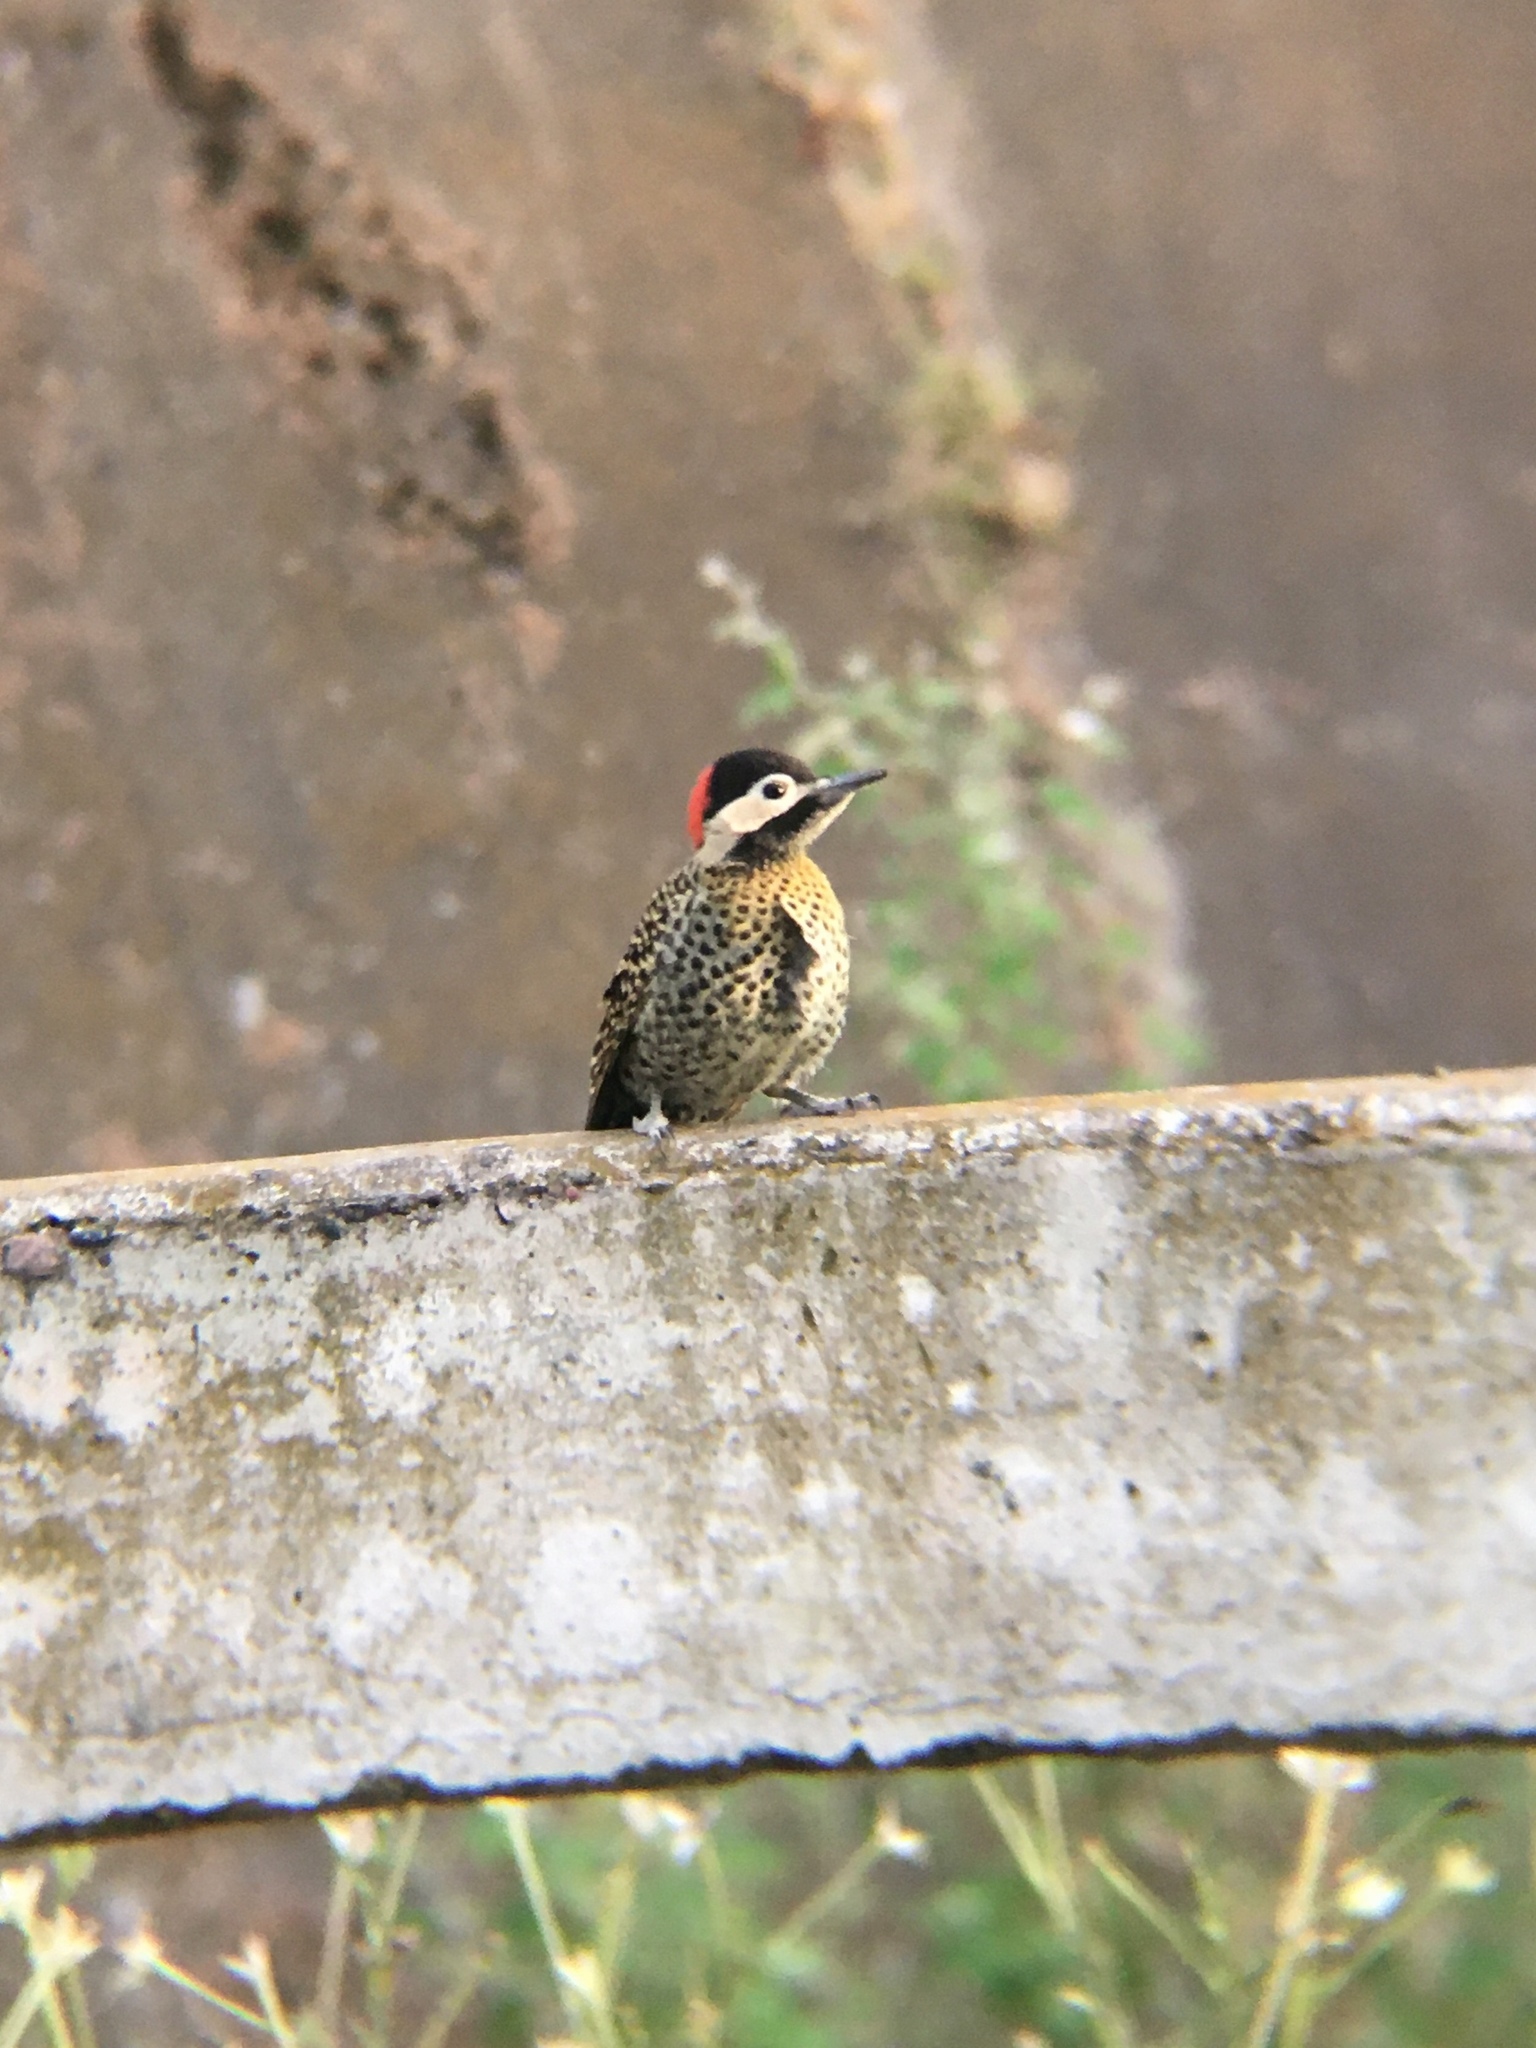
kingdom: Animalia
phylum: Chordata
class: Aves
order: Piciformes
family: Picidae
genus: Colaptes
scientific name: Colaptes melanochloros
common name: Green-barred woodpecker
